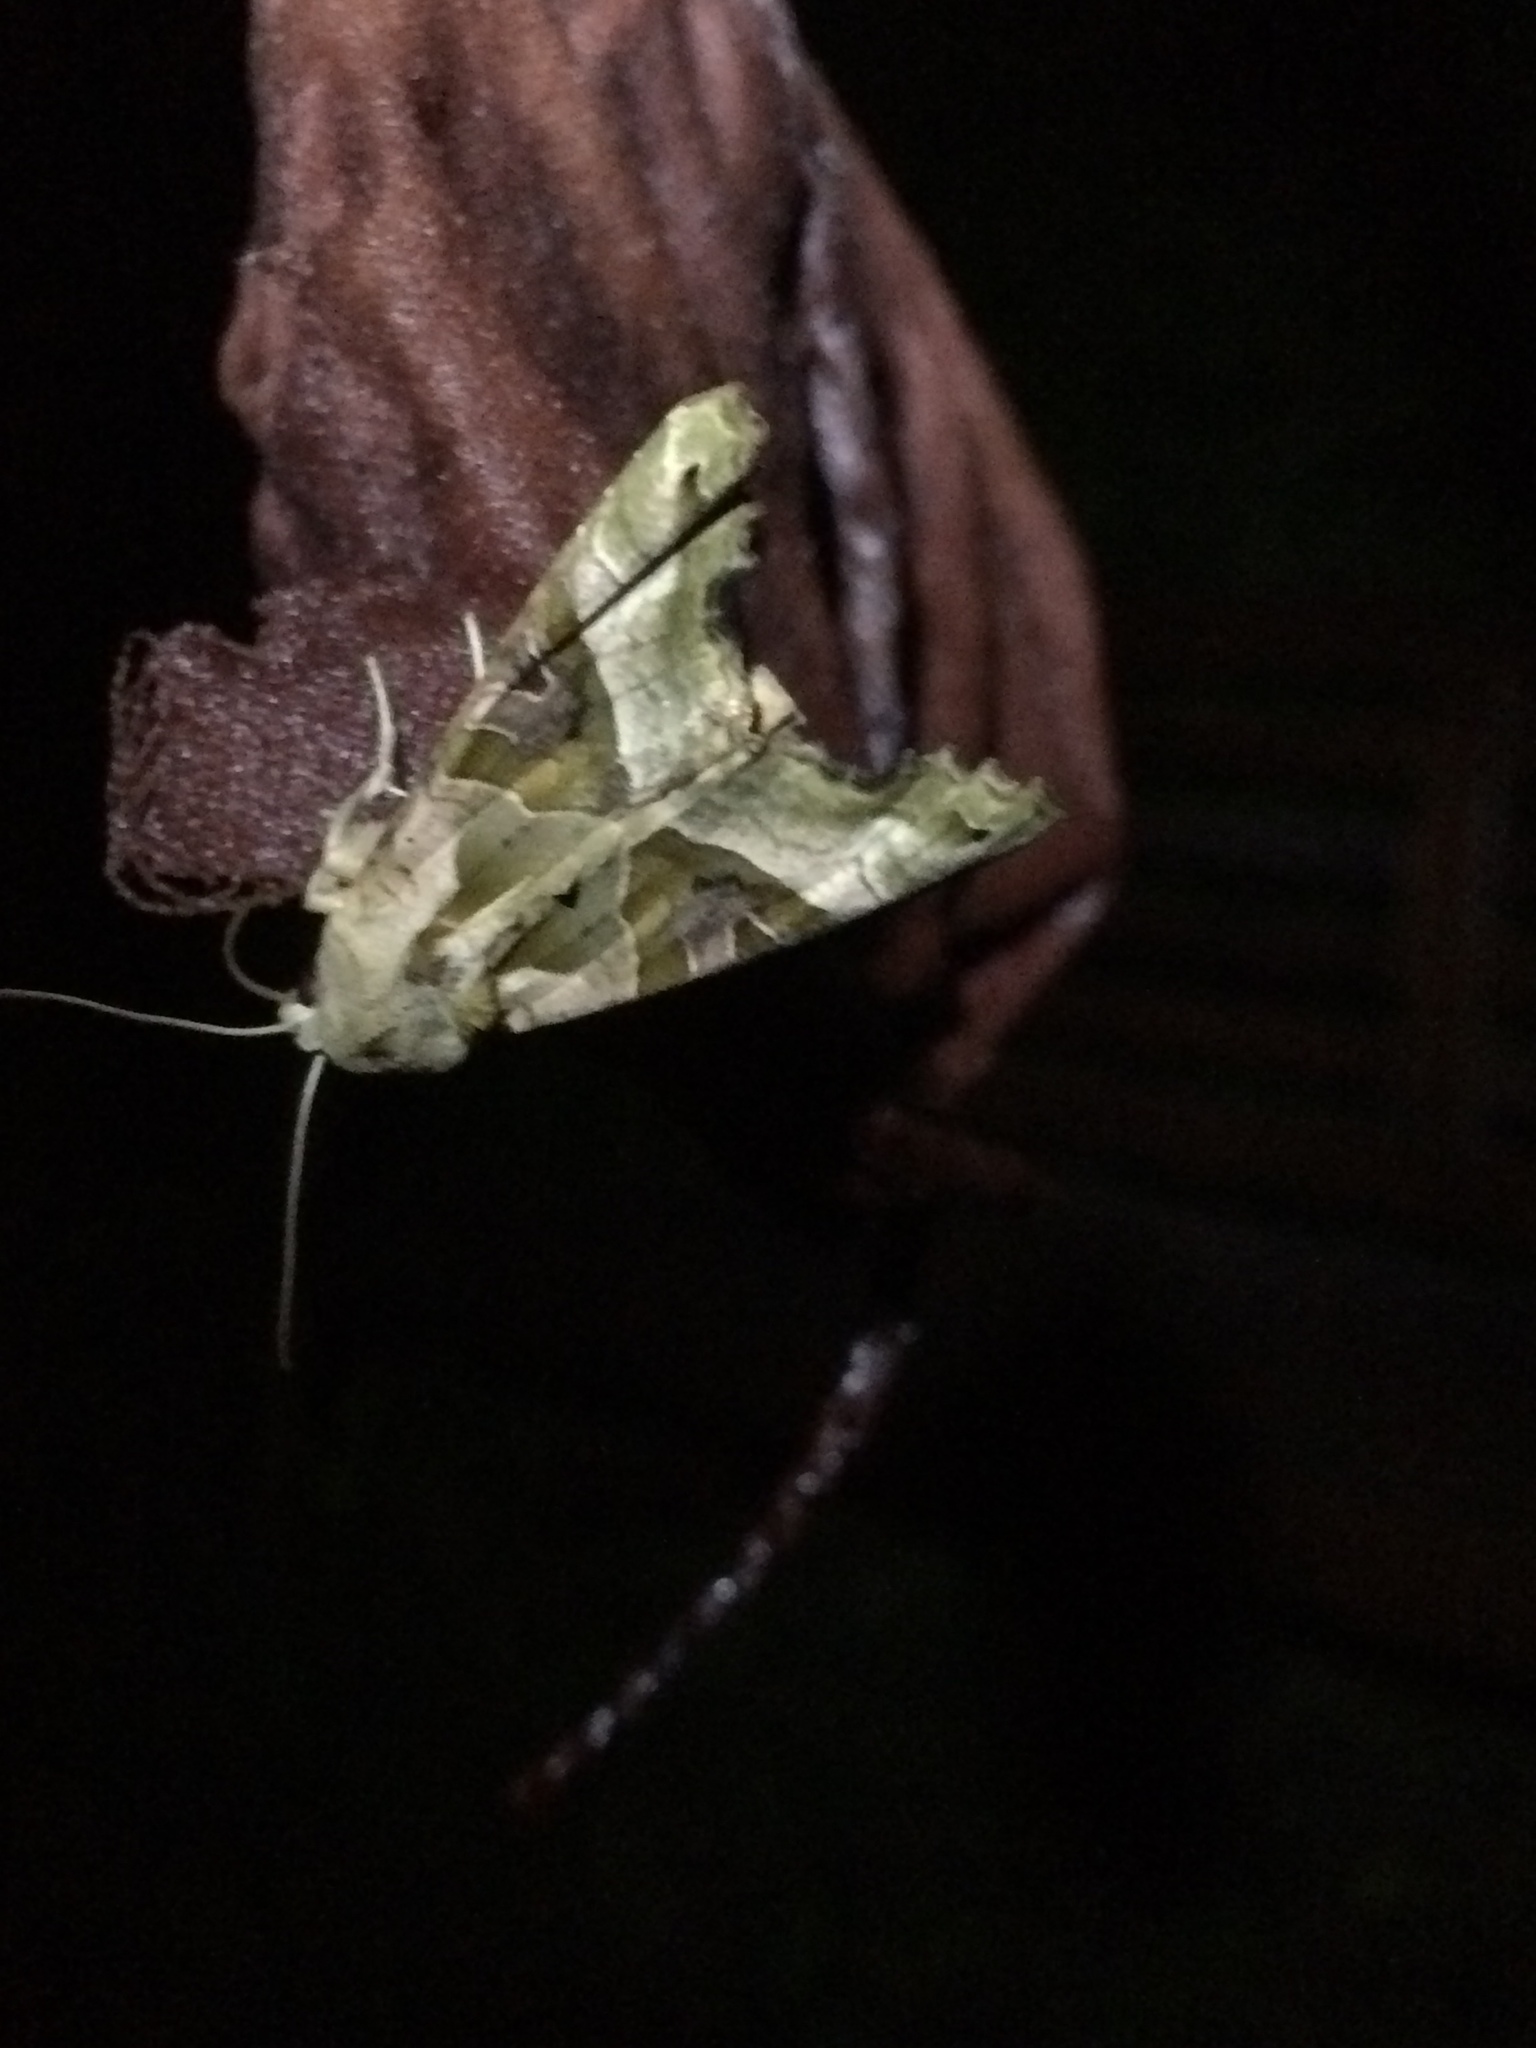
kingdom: Animalia
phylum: Arthropoda
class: Insecta
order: Lepidoptera
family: Noctuidae
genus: Phlogophora
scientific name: Phlogophora meticulosa
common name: Angle shades
